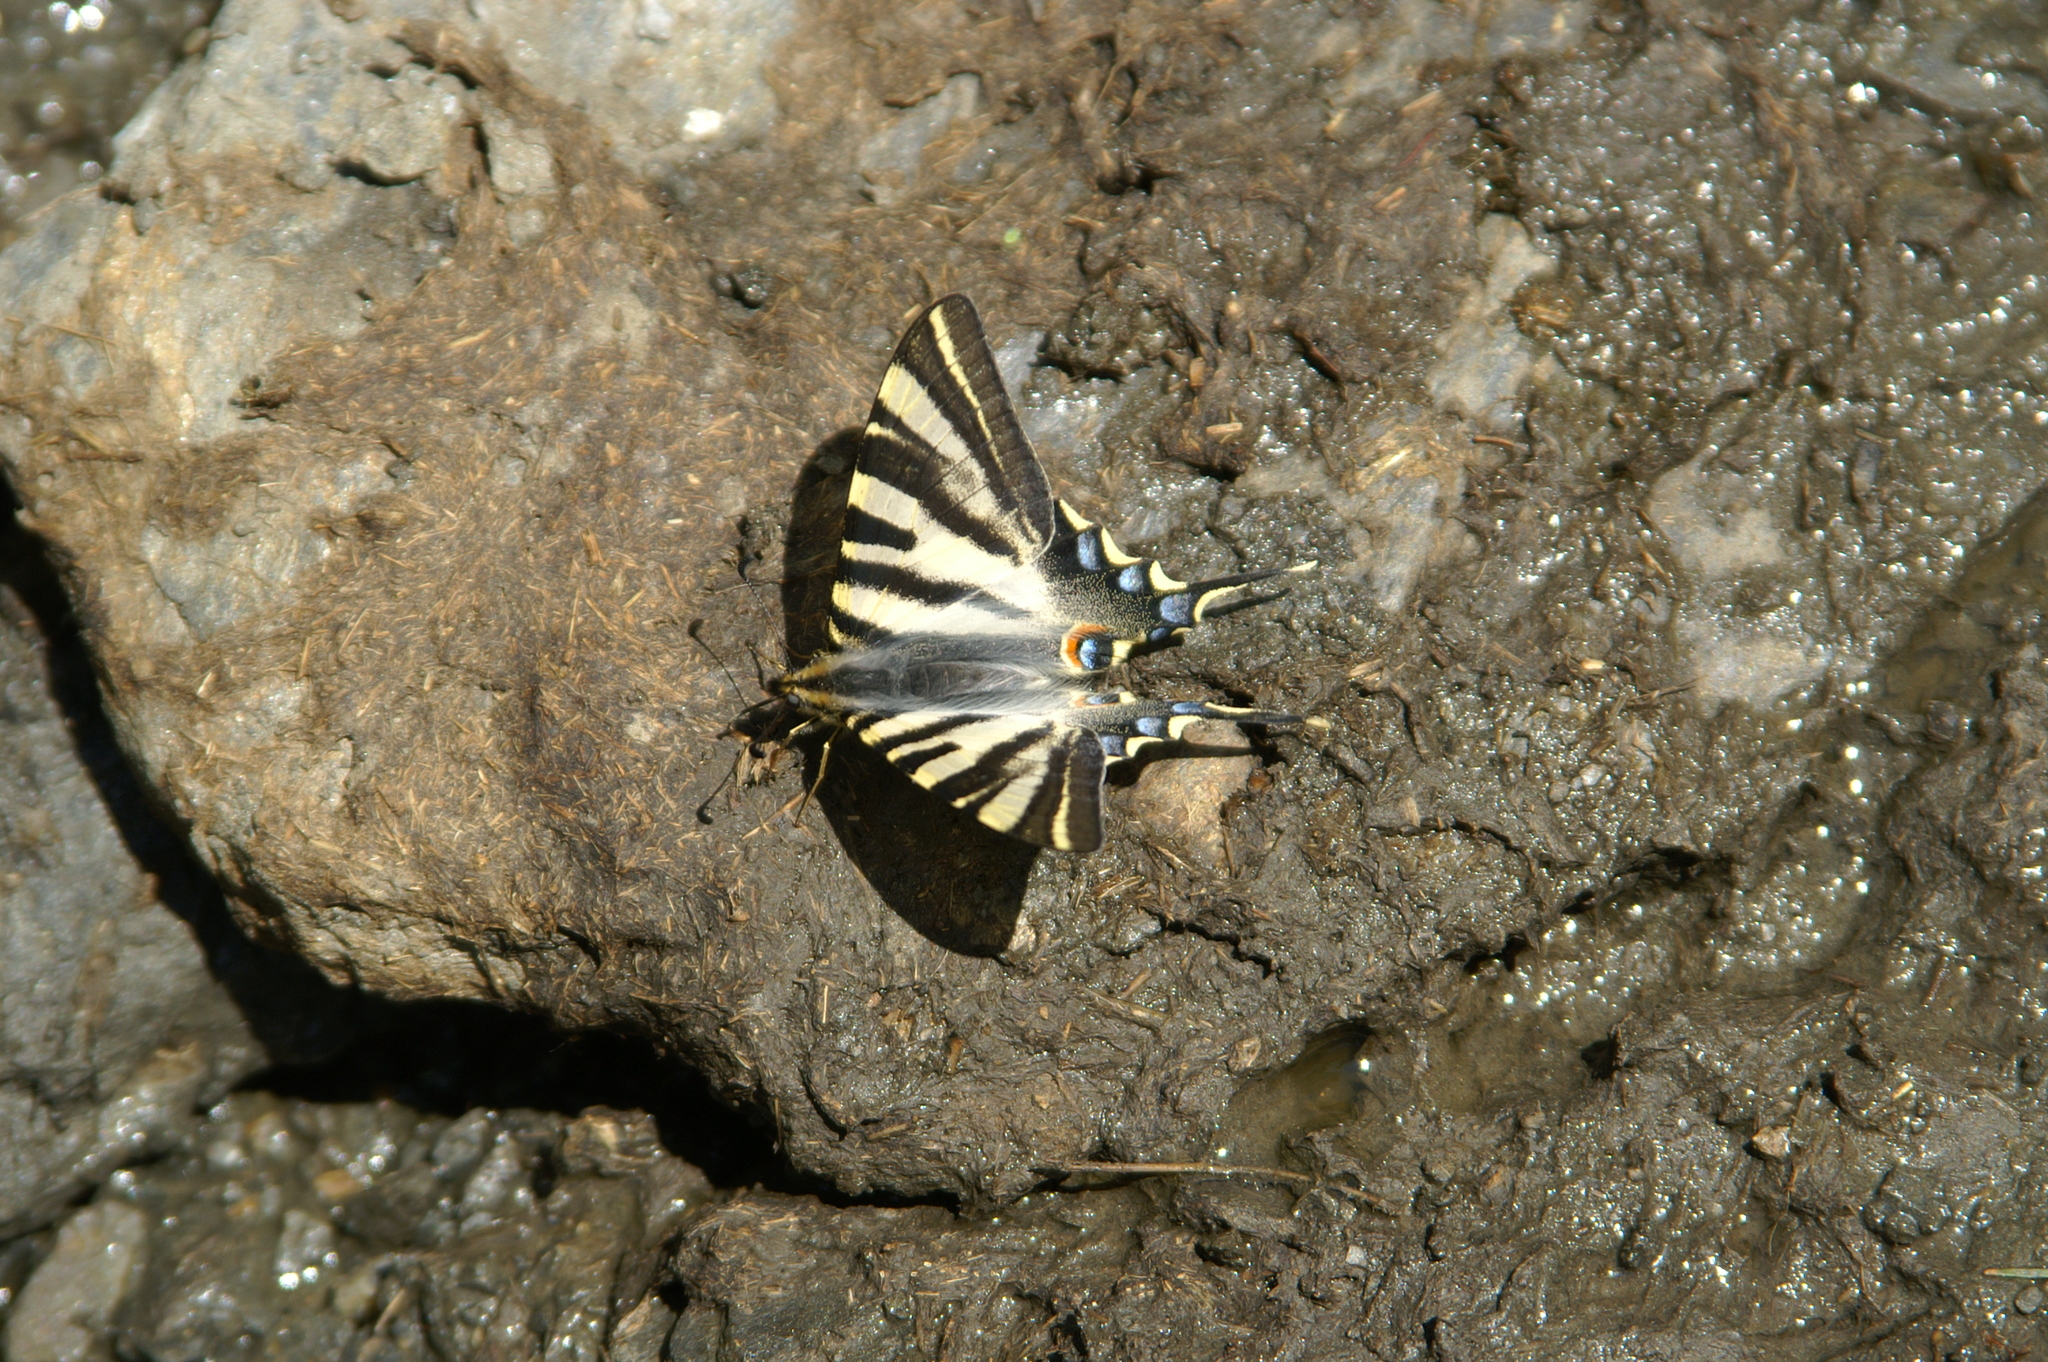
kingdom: Animalia
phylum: Arthropoda
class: Insecta
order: Lepidoptera
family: Papilionidae
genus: Iphiclides
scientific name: Iphiclides feisthamelii
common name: Iberian scarce swallowtail
